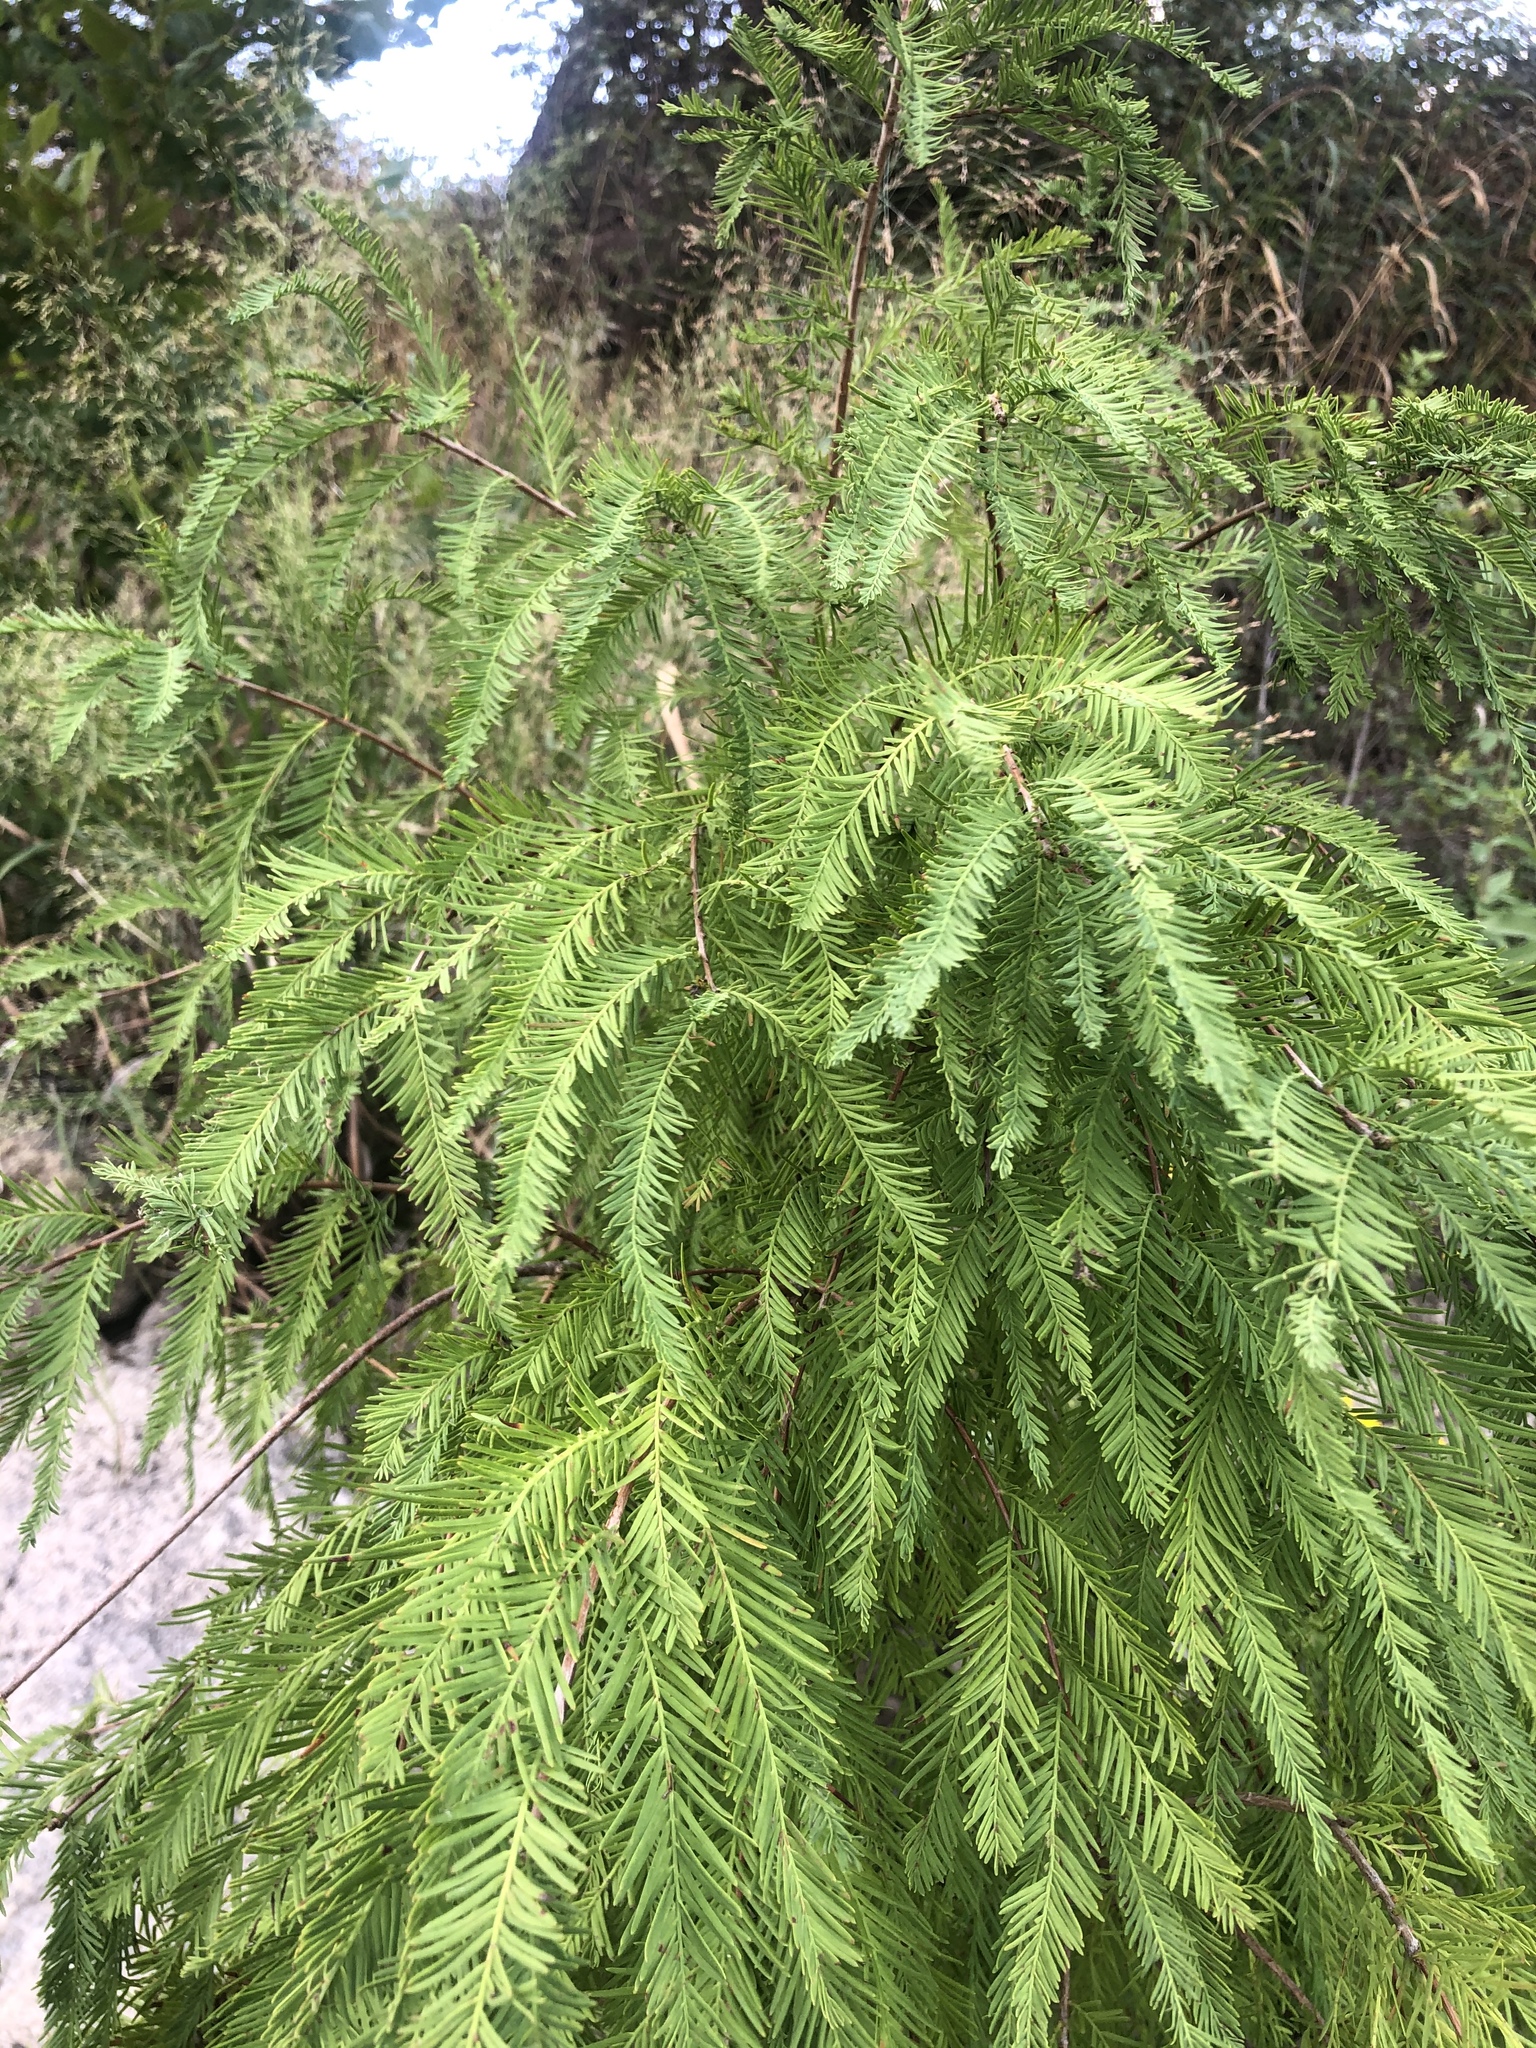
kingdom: Plantae
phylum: Tracheophyta
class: Pinopsida
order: Pinales
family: Cupressaceae
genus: Taxodium
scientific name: Taxodium distichum
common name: Bald cypress
